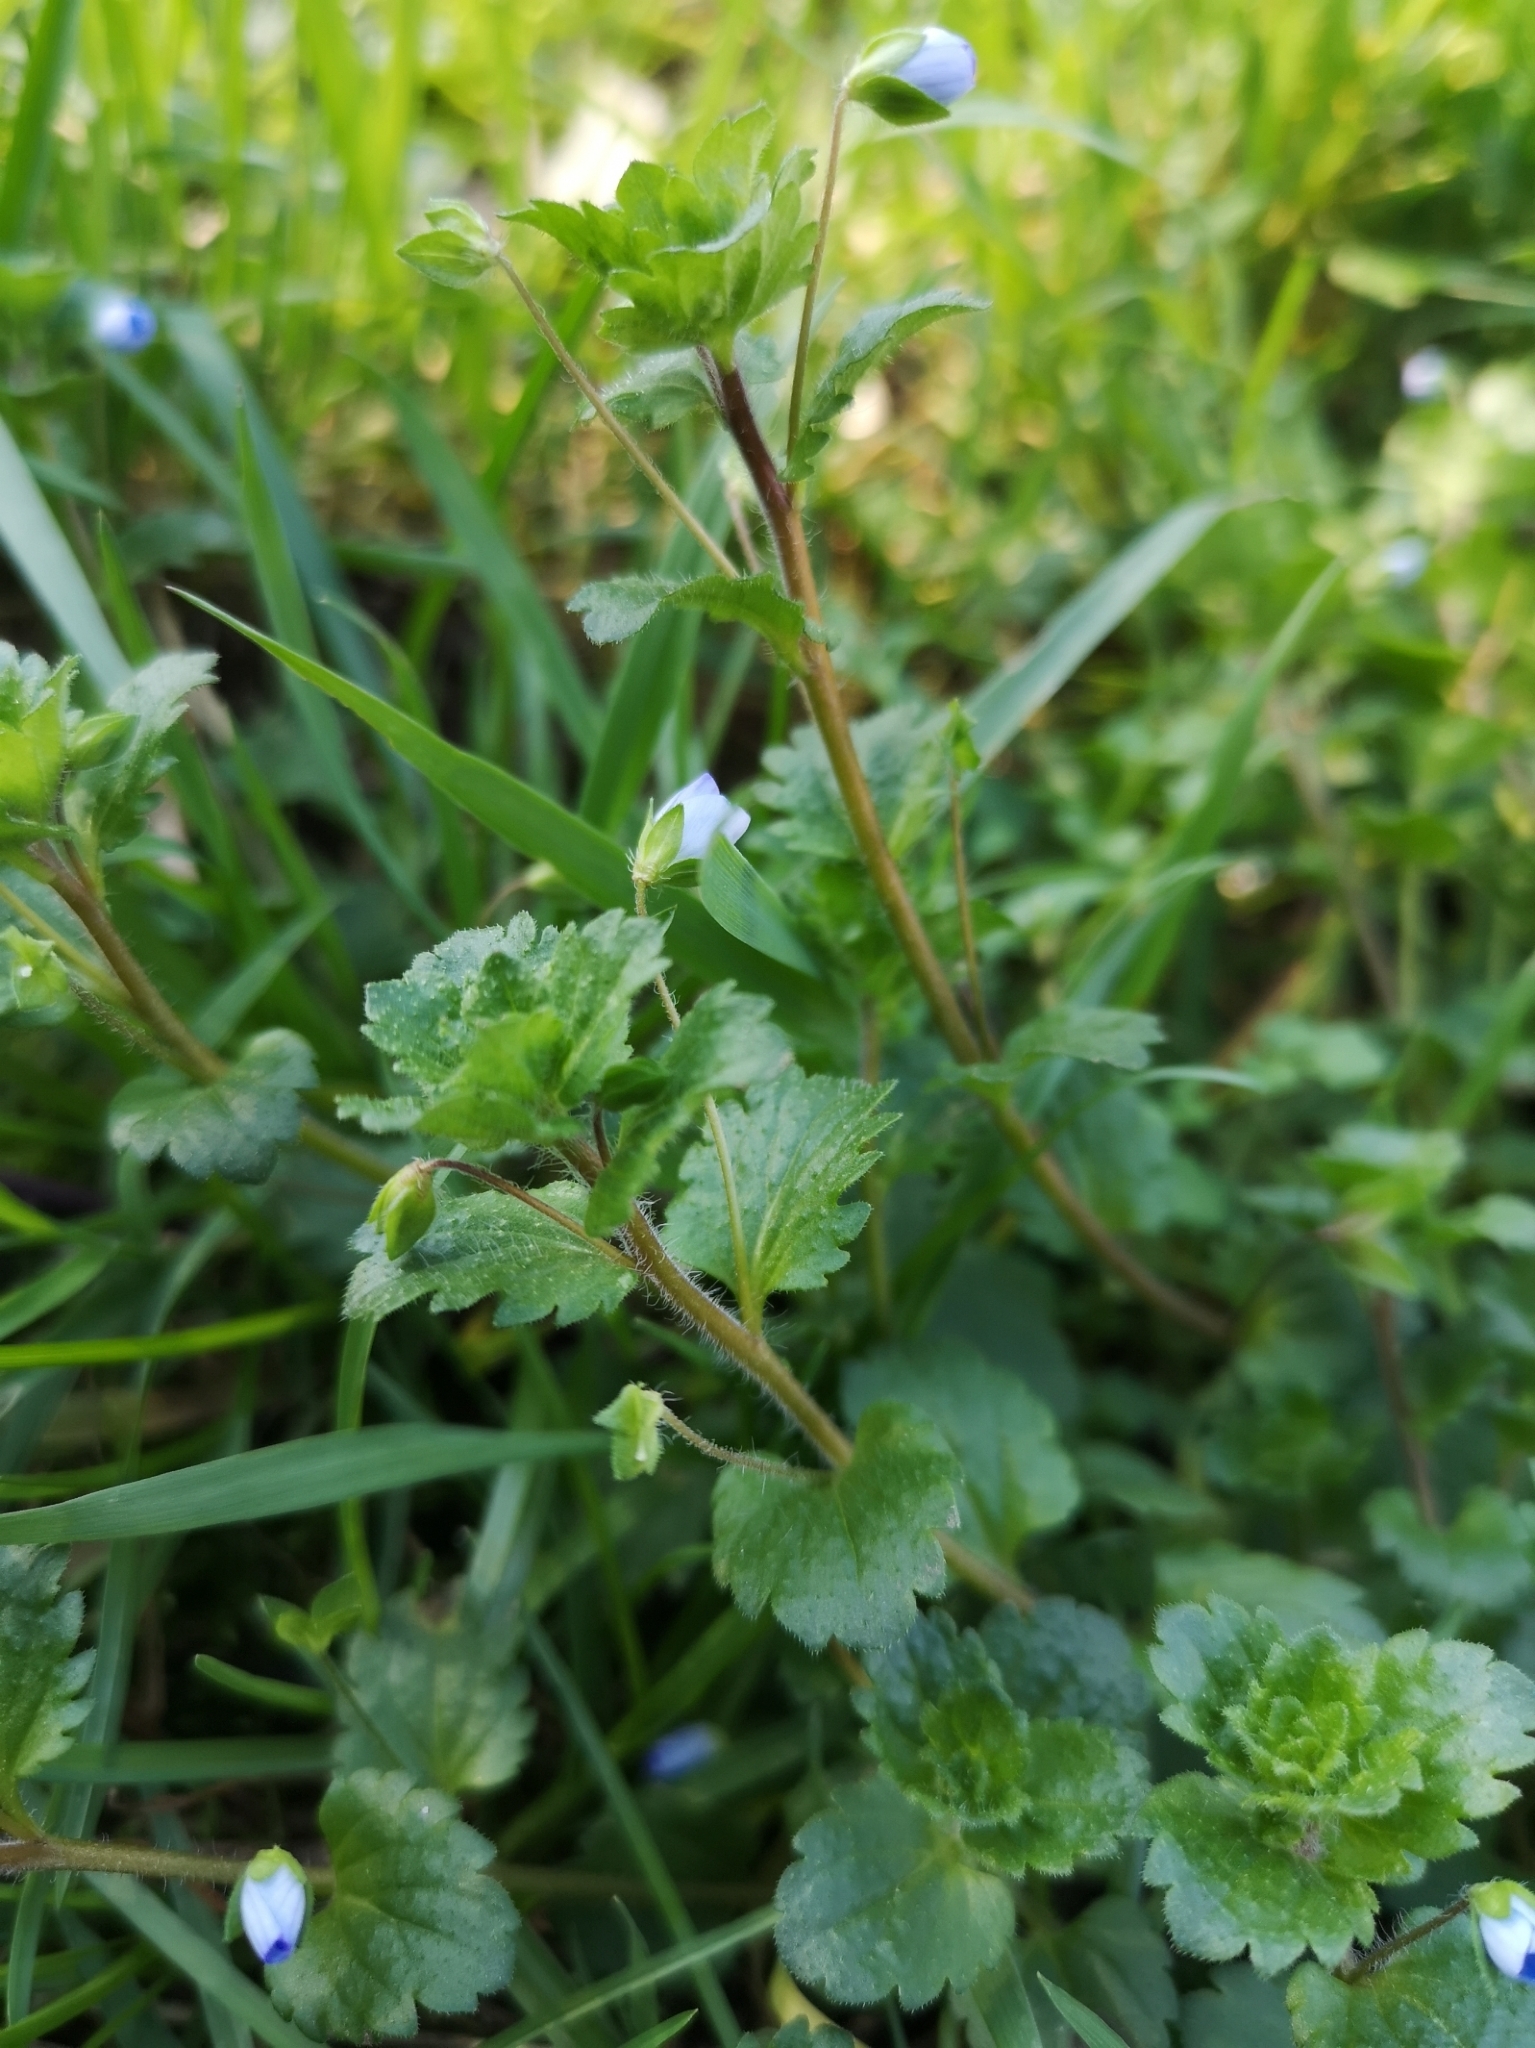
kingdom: Plantae
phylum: Tracheophyta
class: Magnoliopsida
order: Lamiales
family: Plantaginaceae
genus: Veronica
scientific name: Veronica persica
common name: Common field-speedwell
